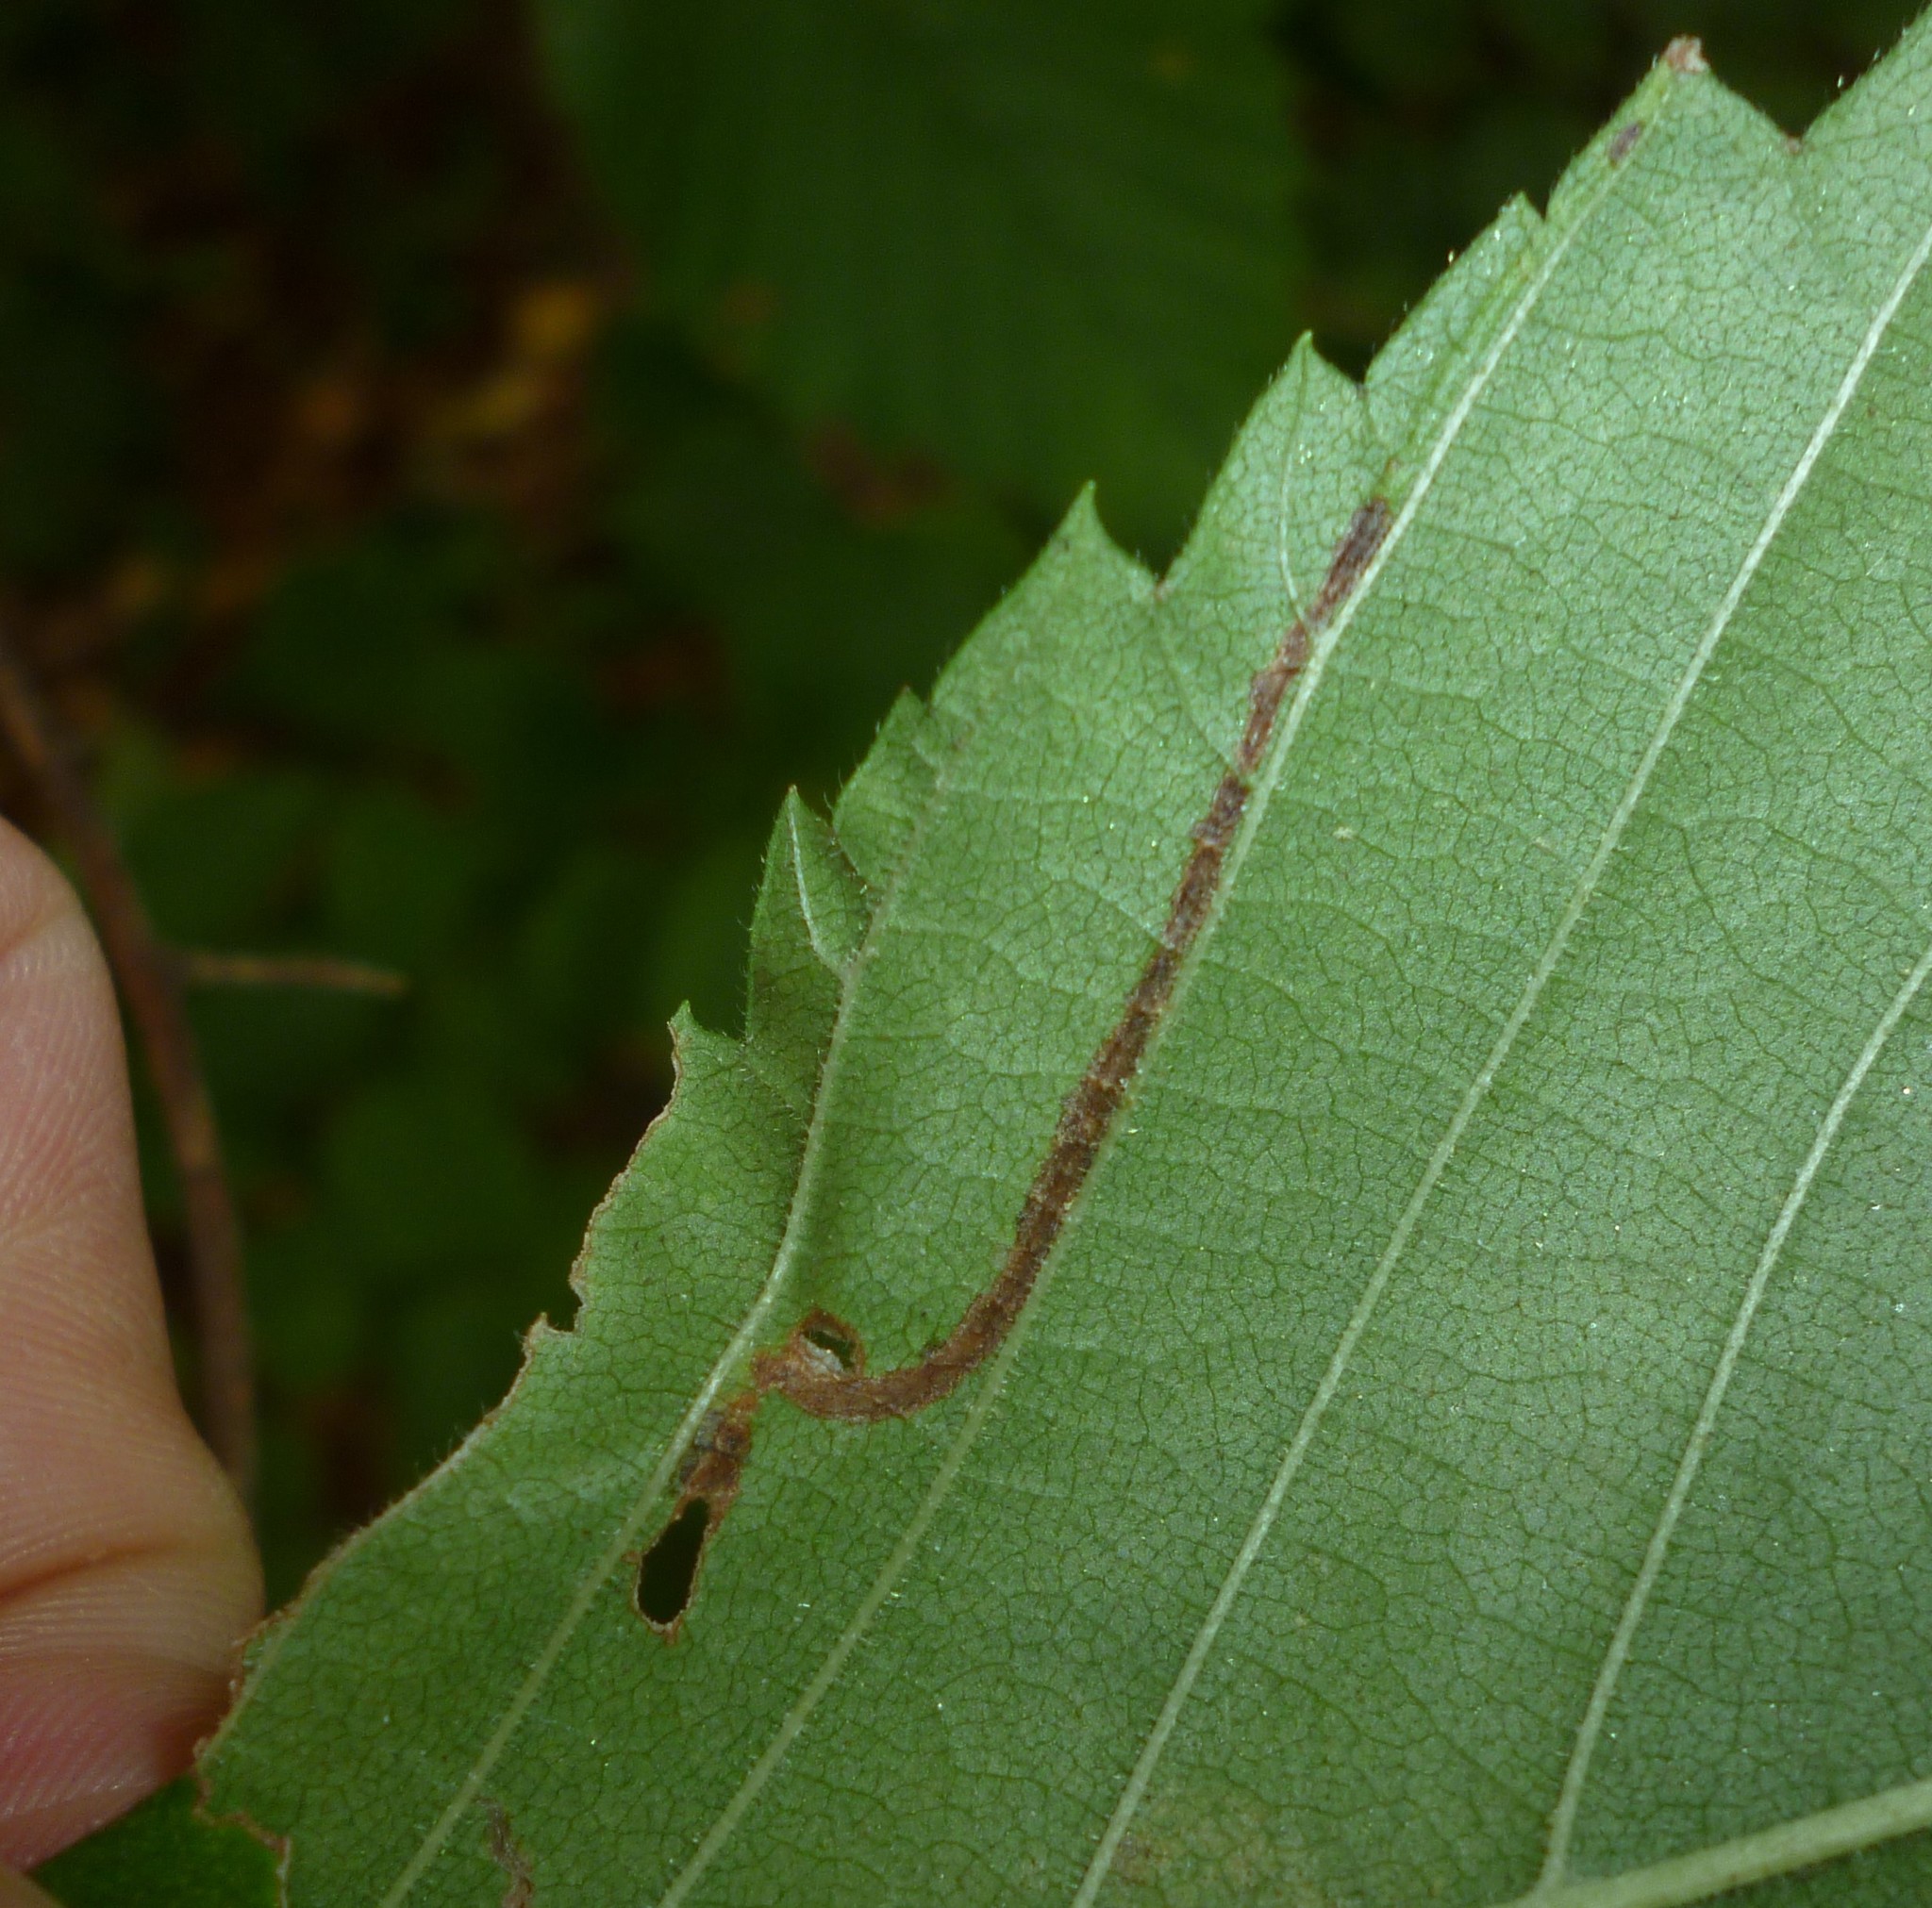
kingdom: Animalia
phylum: Arthropoda
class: Insecta
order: Diptera
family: Agromyzidae
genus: Agromyza
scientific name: Agromyza aristata
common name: Elm agromyzid leafminer
